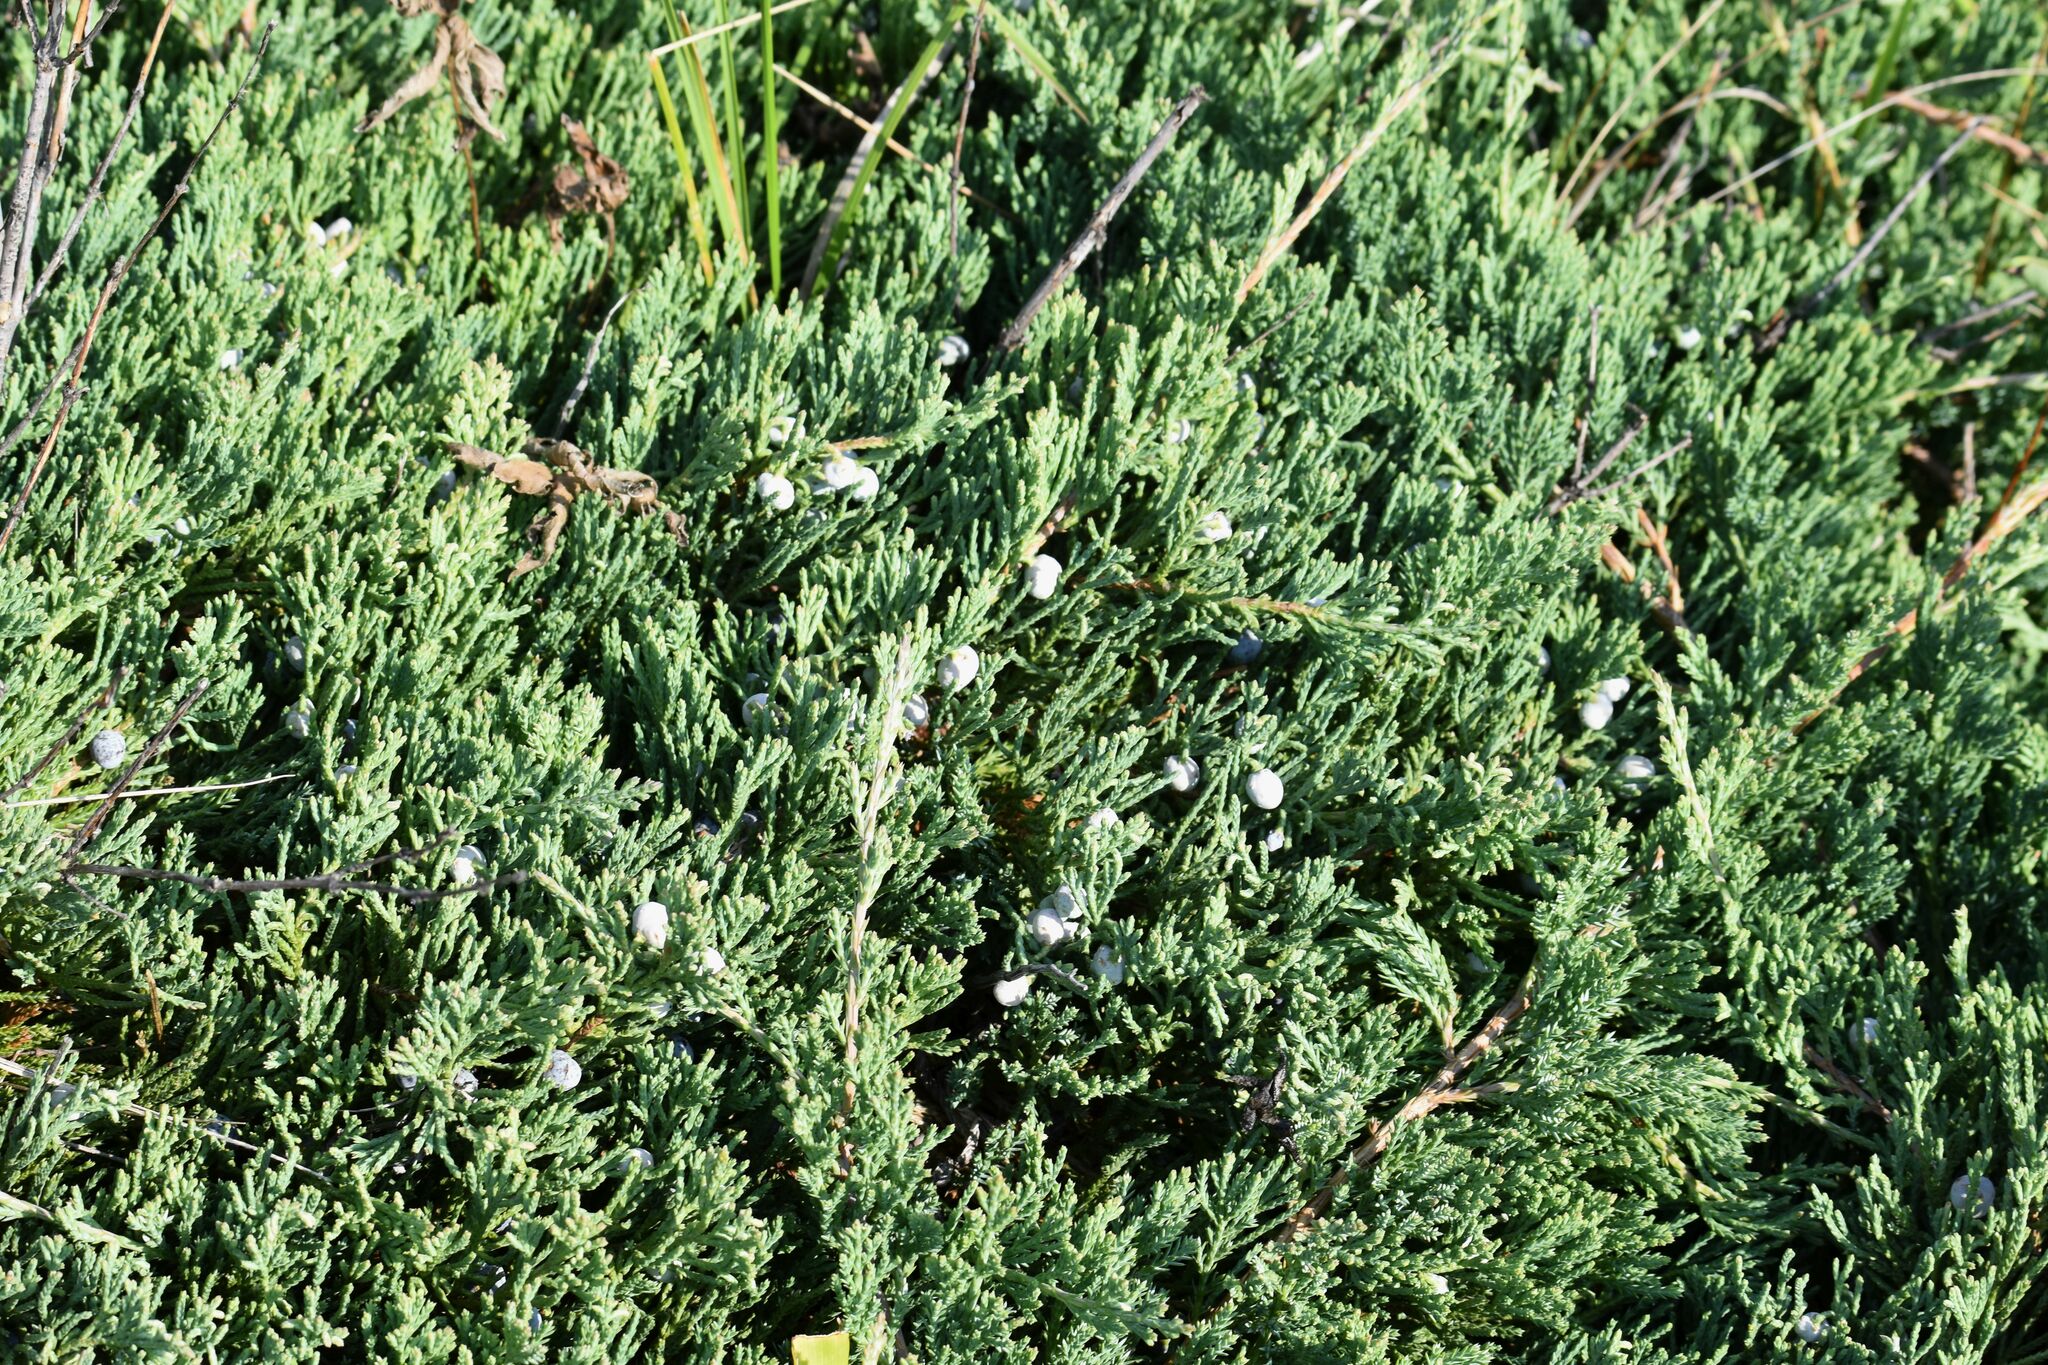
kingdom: Plantae
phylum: Tracheophyta
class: Pinopsida
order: Pinales
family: Cupressaceae
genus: Juniperus
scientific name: Juniperus horizontalis
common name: Creeping juniper
